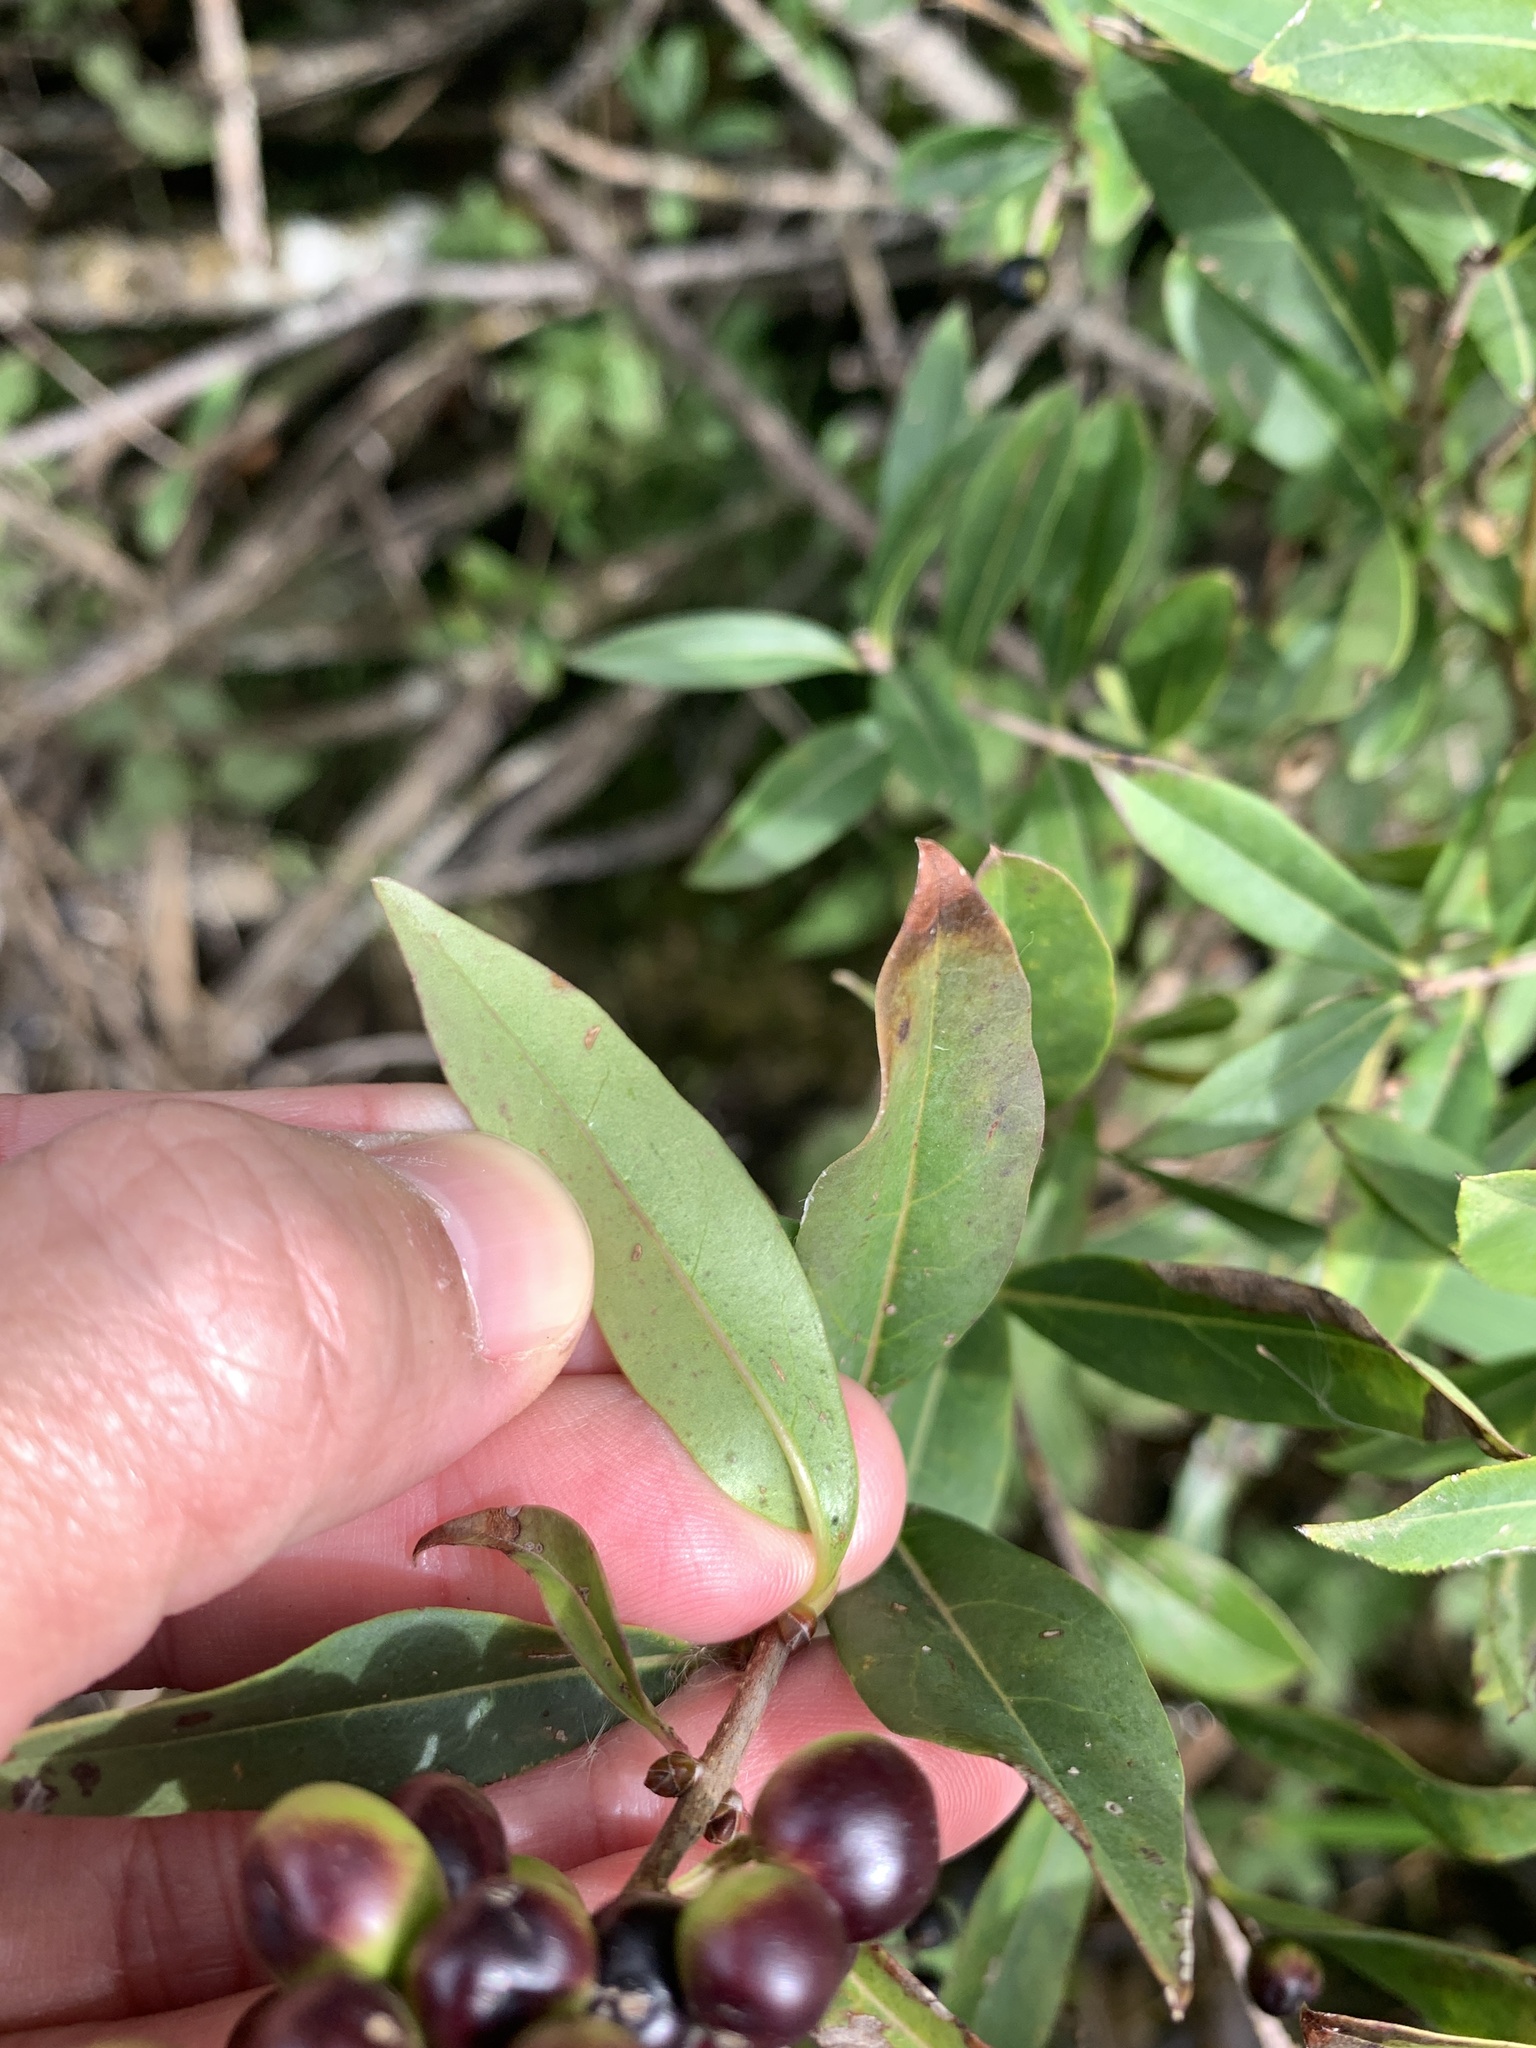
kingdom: Plantae
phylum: Tracheophyta
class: Magnoliopsida
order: Lamiales
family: Oleaceae
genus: Ligustrum
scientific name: Ligustrum vulgare
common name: Wild privet
